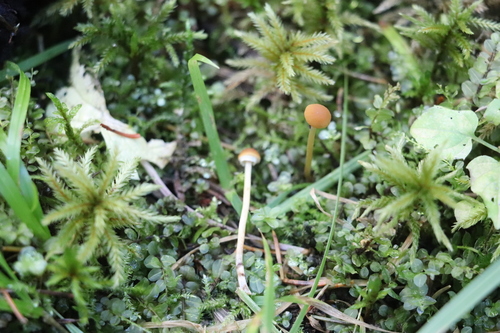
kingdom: Fungi
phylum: Basidiomycota
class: Agaricomycetes
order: Agaricales
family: Bolbitiaceae
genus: Conocybe
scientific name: Conocybe rugosa
